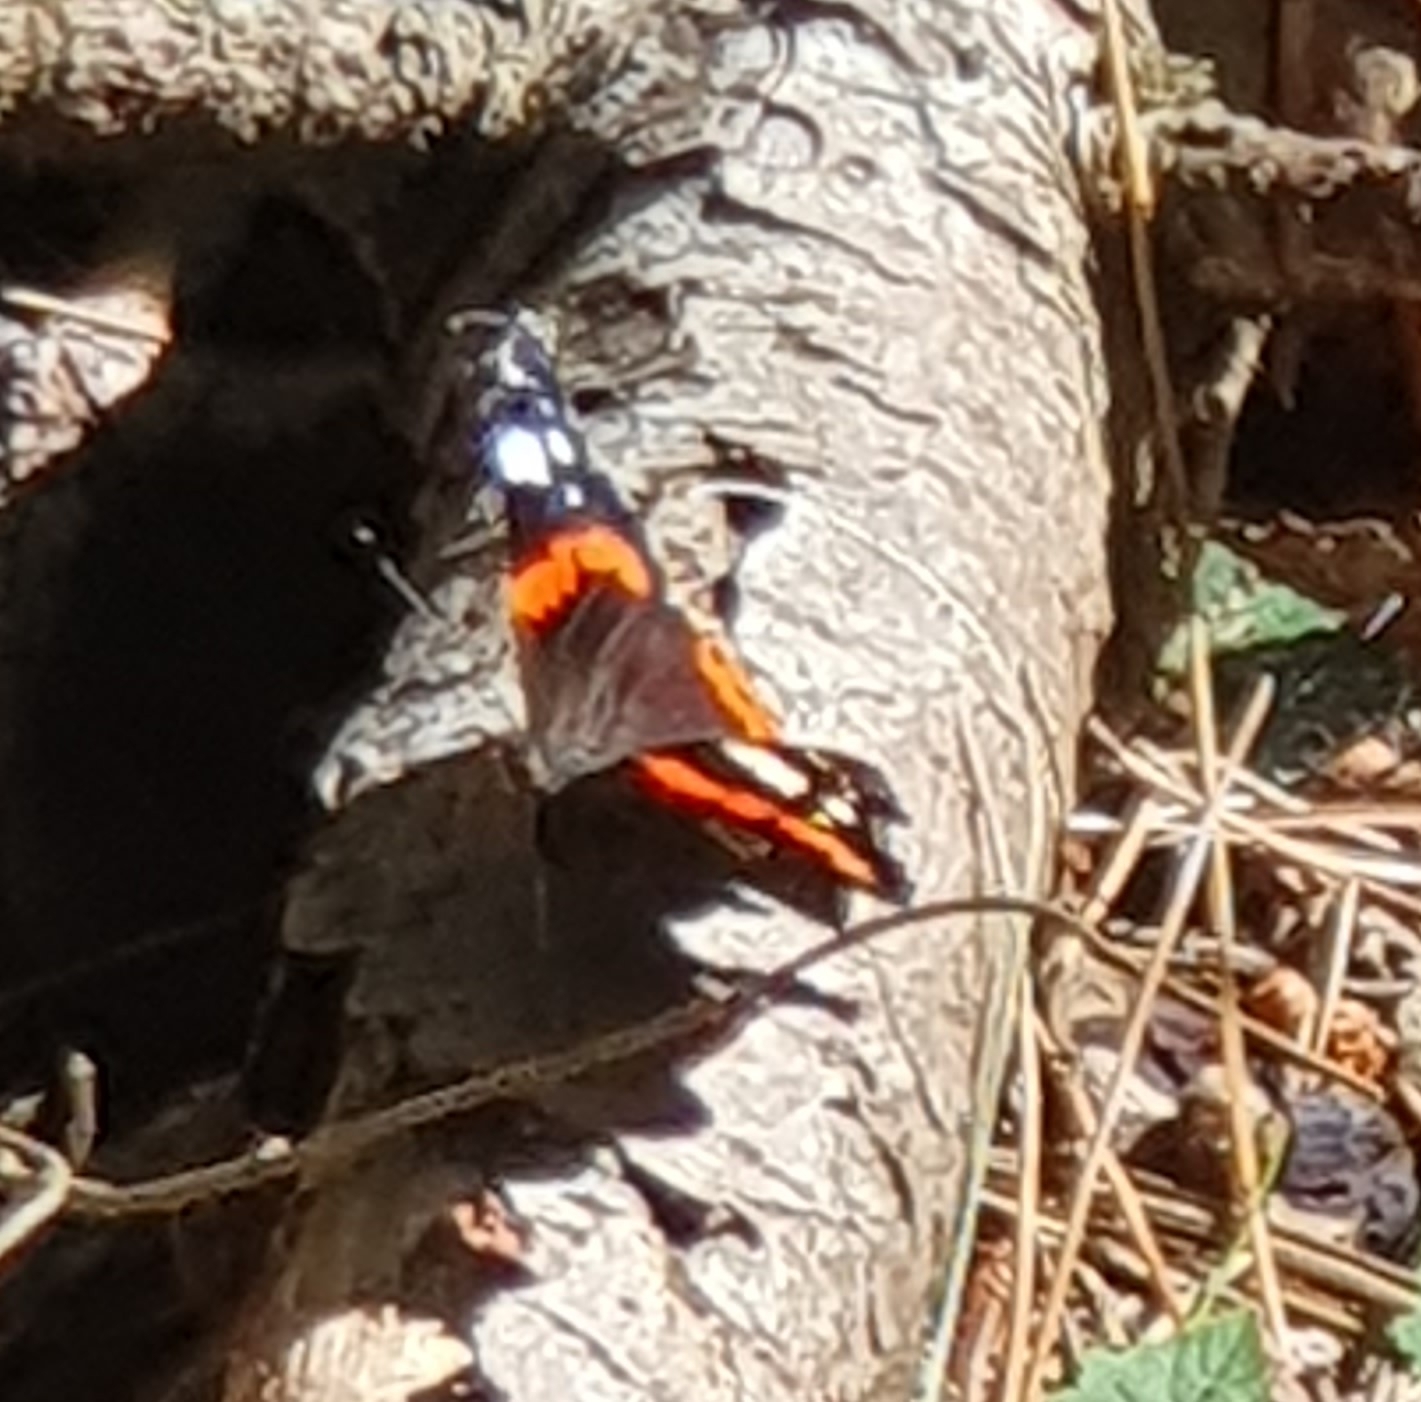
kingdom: Animalia
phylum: Arthropoda
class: Insecta
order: Lepidoptera
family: Nymphalidae
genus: Vanessa
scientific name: Vanessa atalanta
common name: Red admiral
